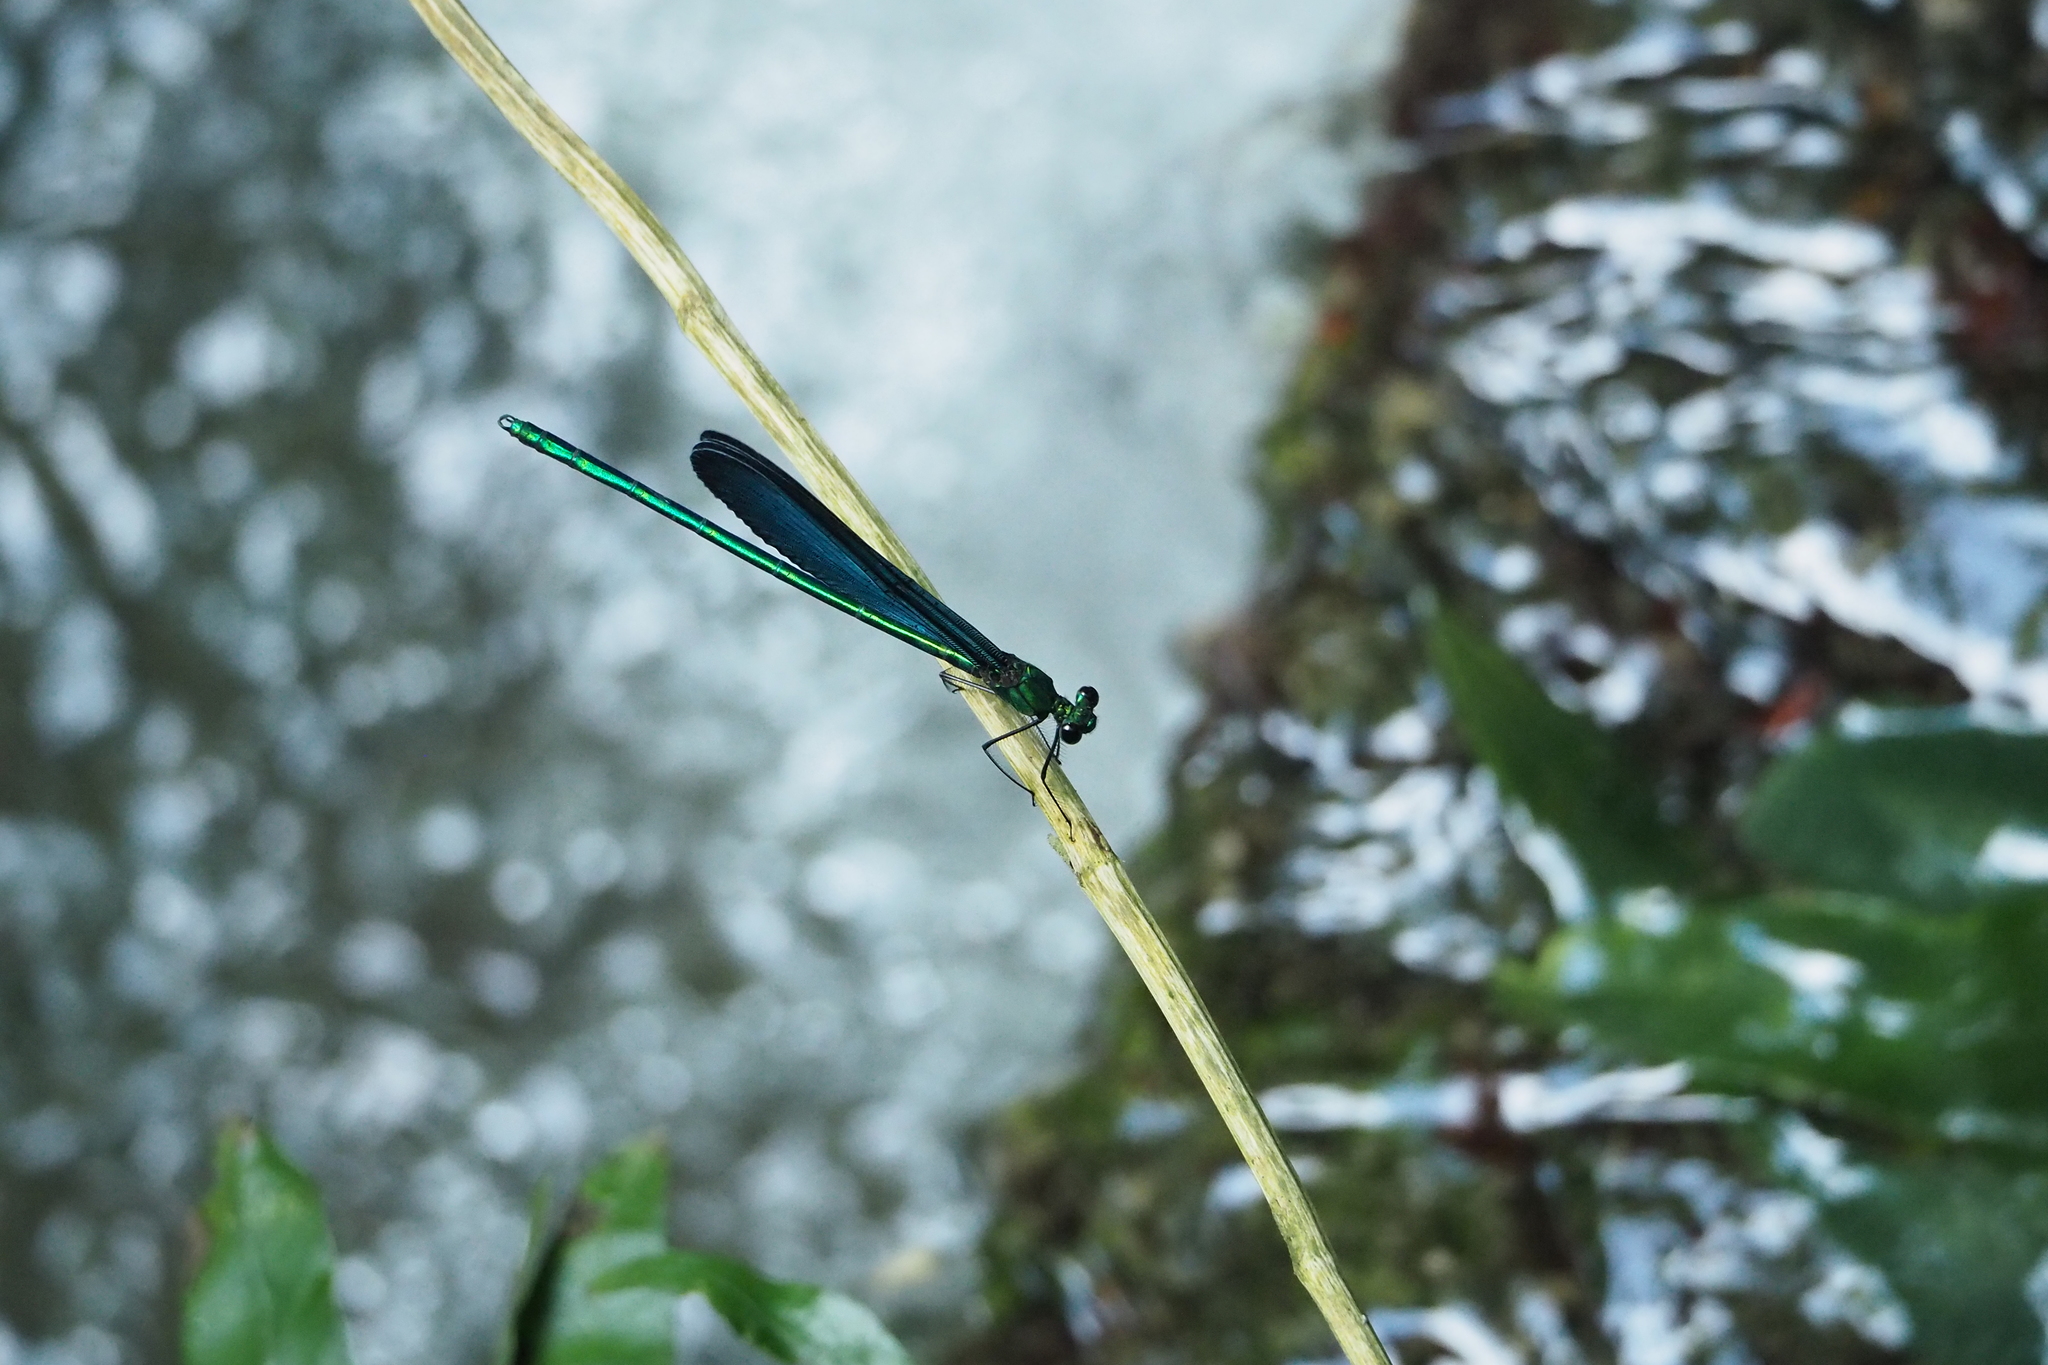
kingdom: Animalia
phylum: Arthropoda
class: Insecta
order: Odonata
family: Calopterygidae
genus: Matrona
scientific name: Matrona cyanoptera
